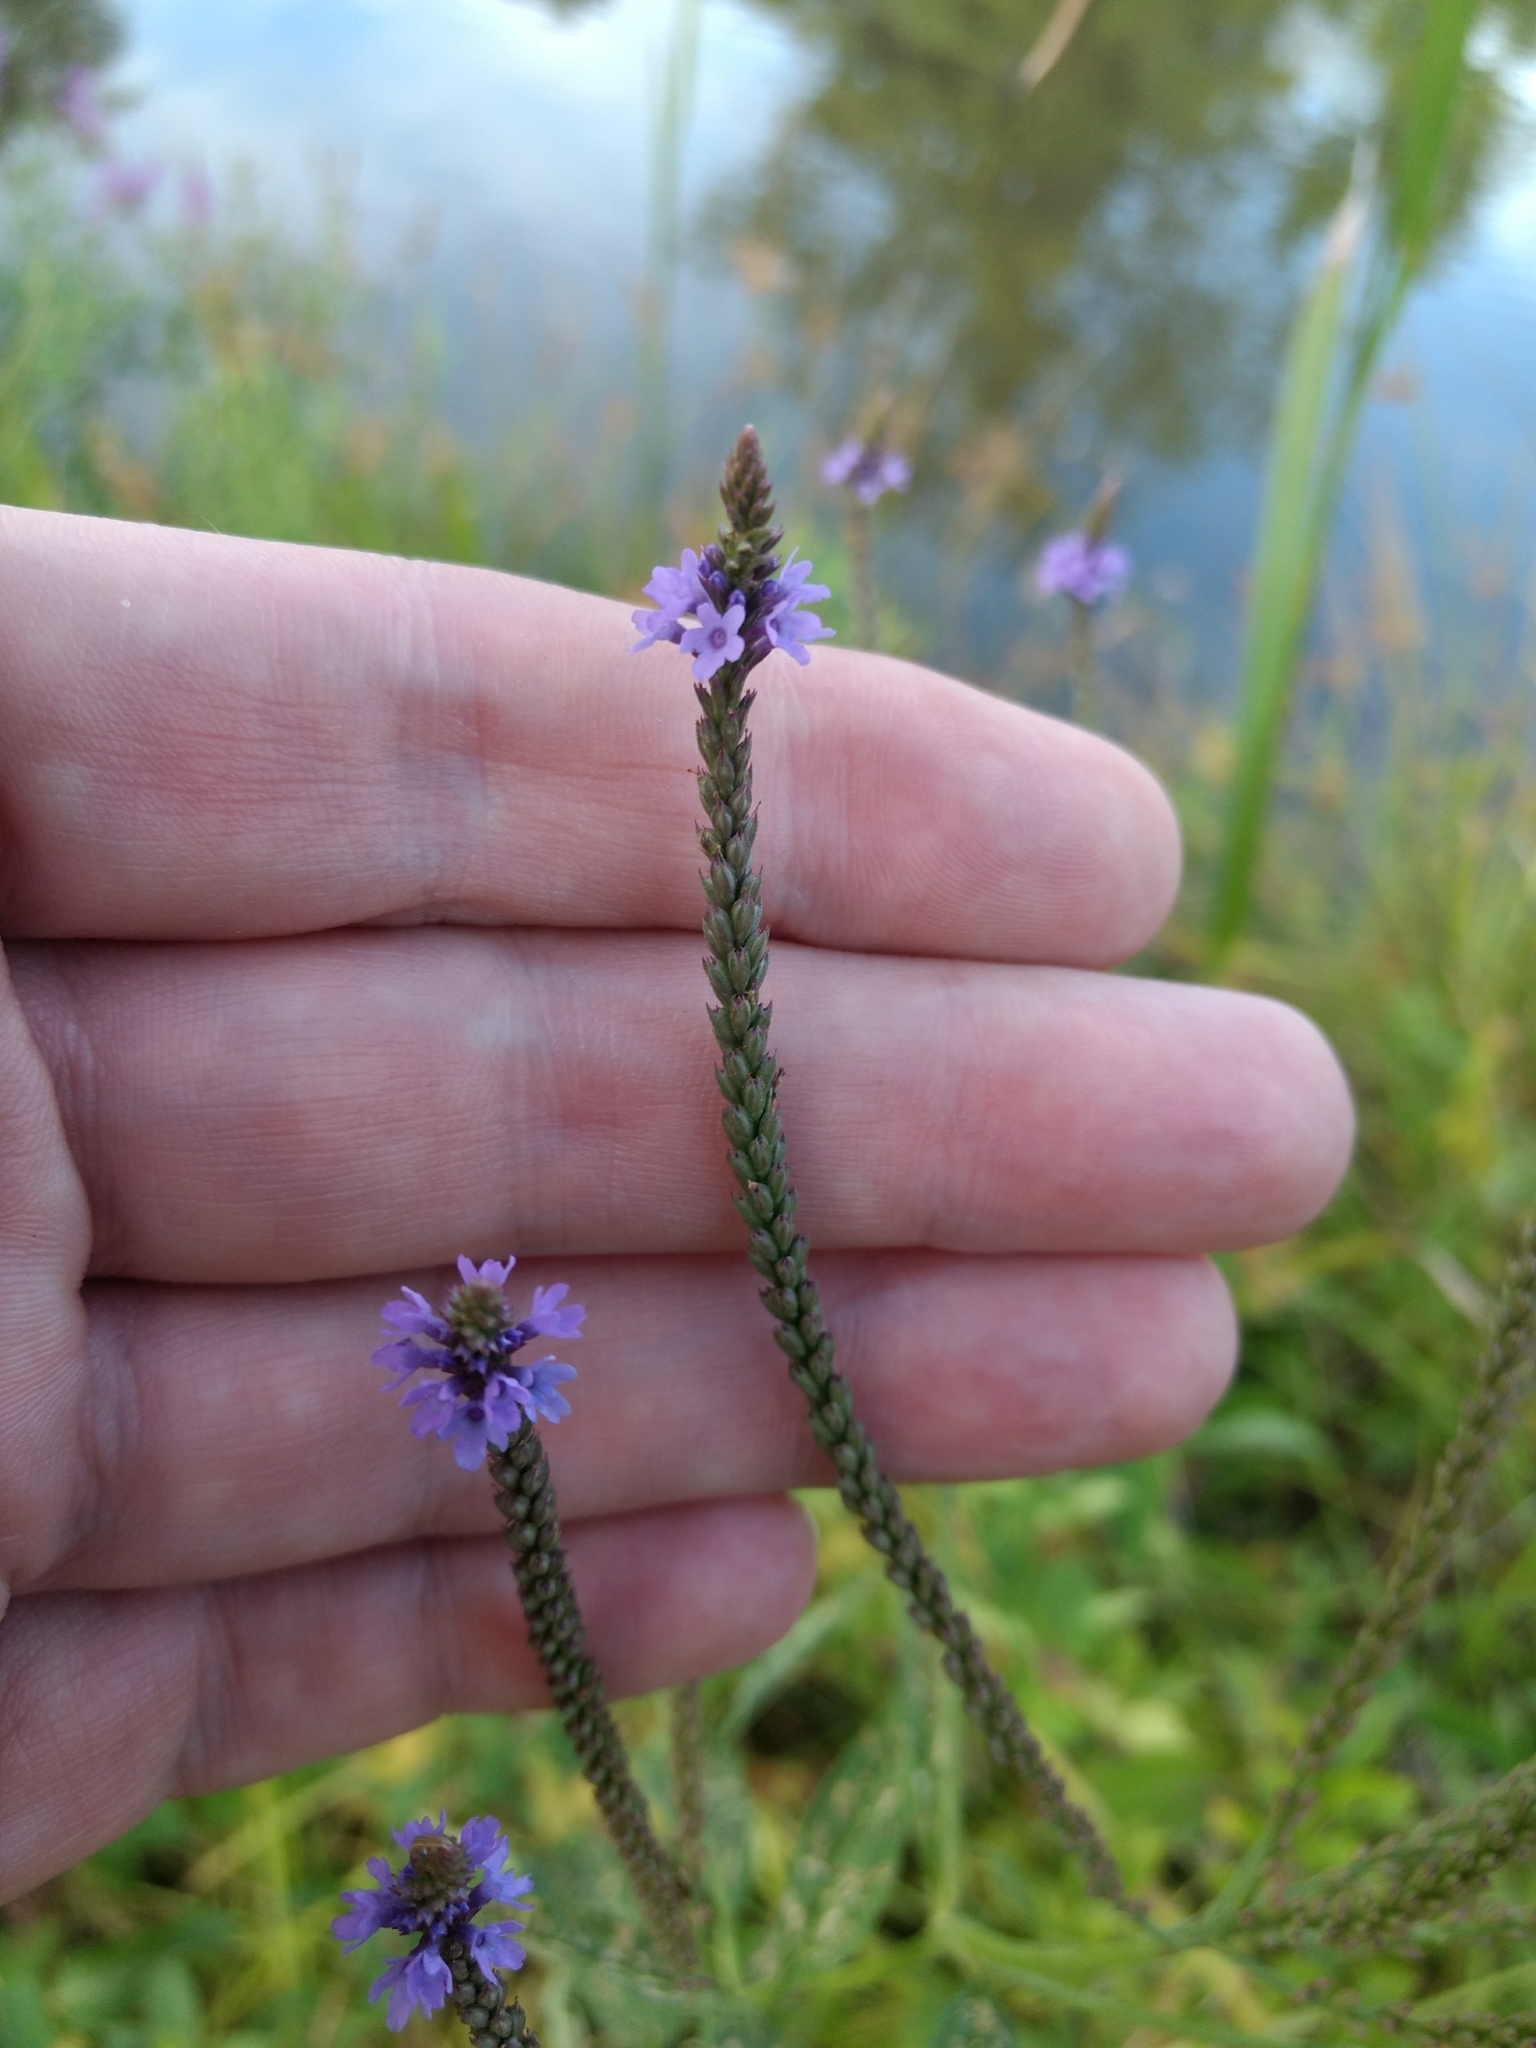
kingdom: Plantae
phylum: Tracheophyta
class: Magnoliopsida
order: Lamiales
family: Verbenaceae
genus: Verbena
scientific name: Verbena hastata
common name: American blue vervain
